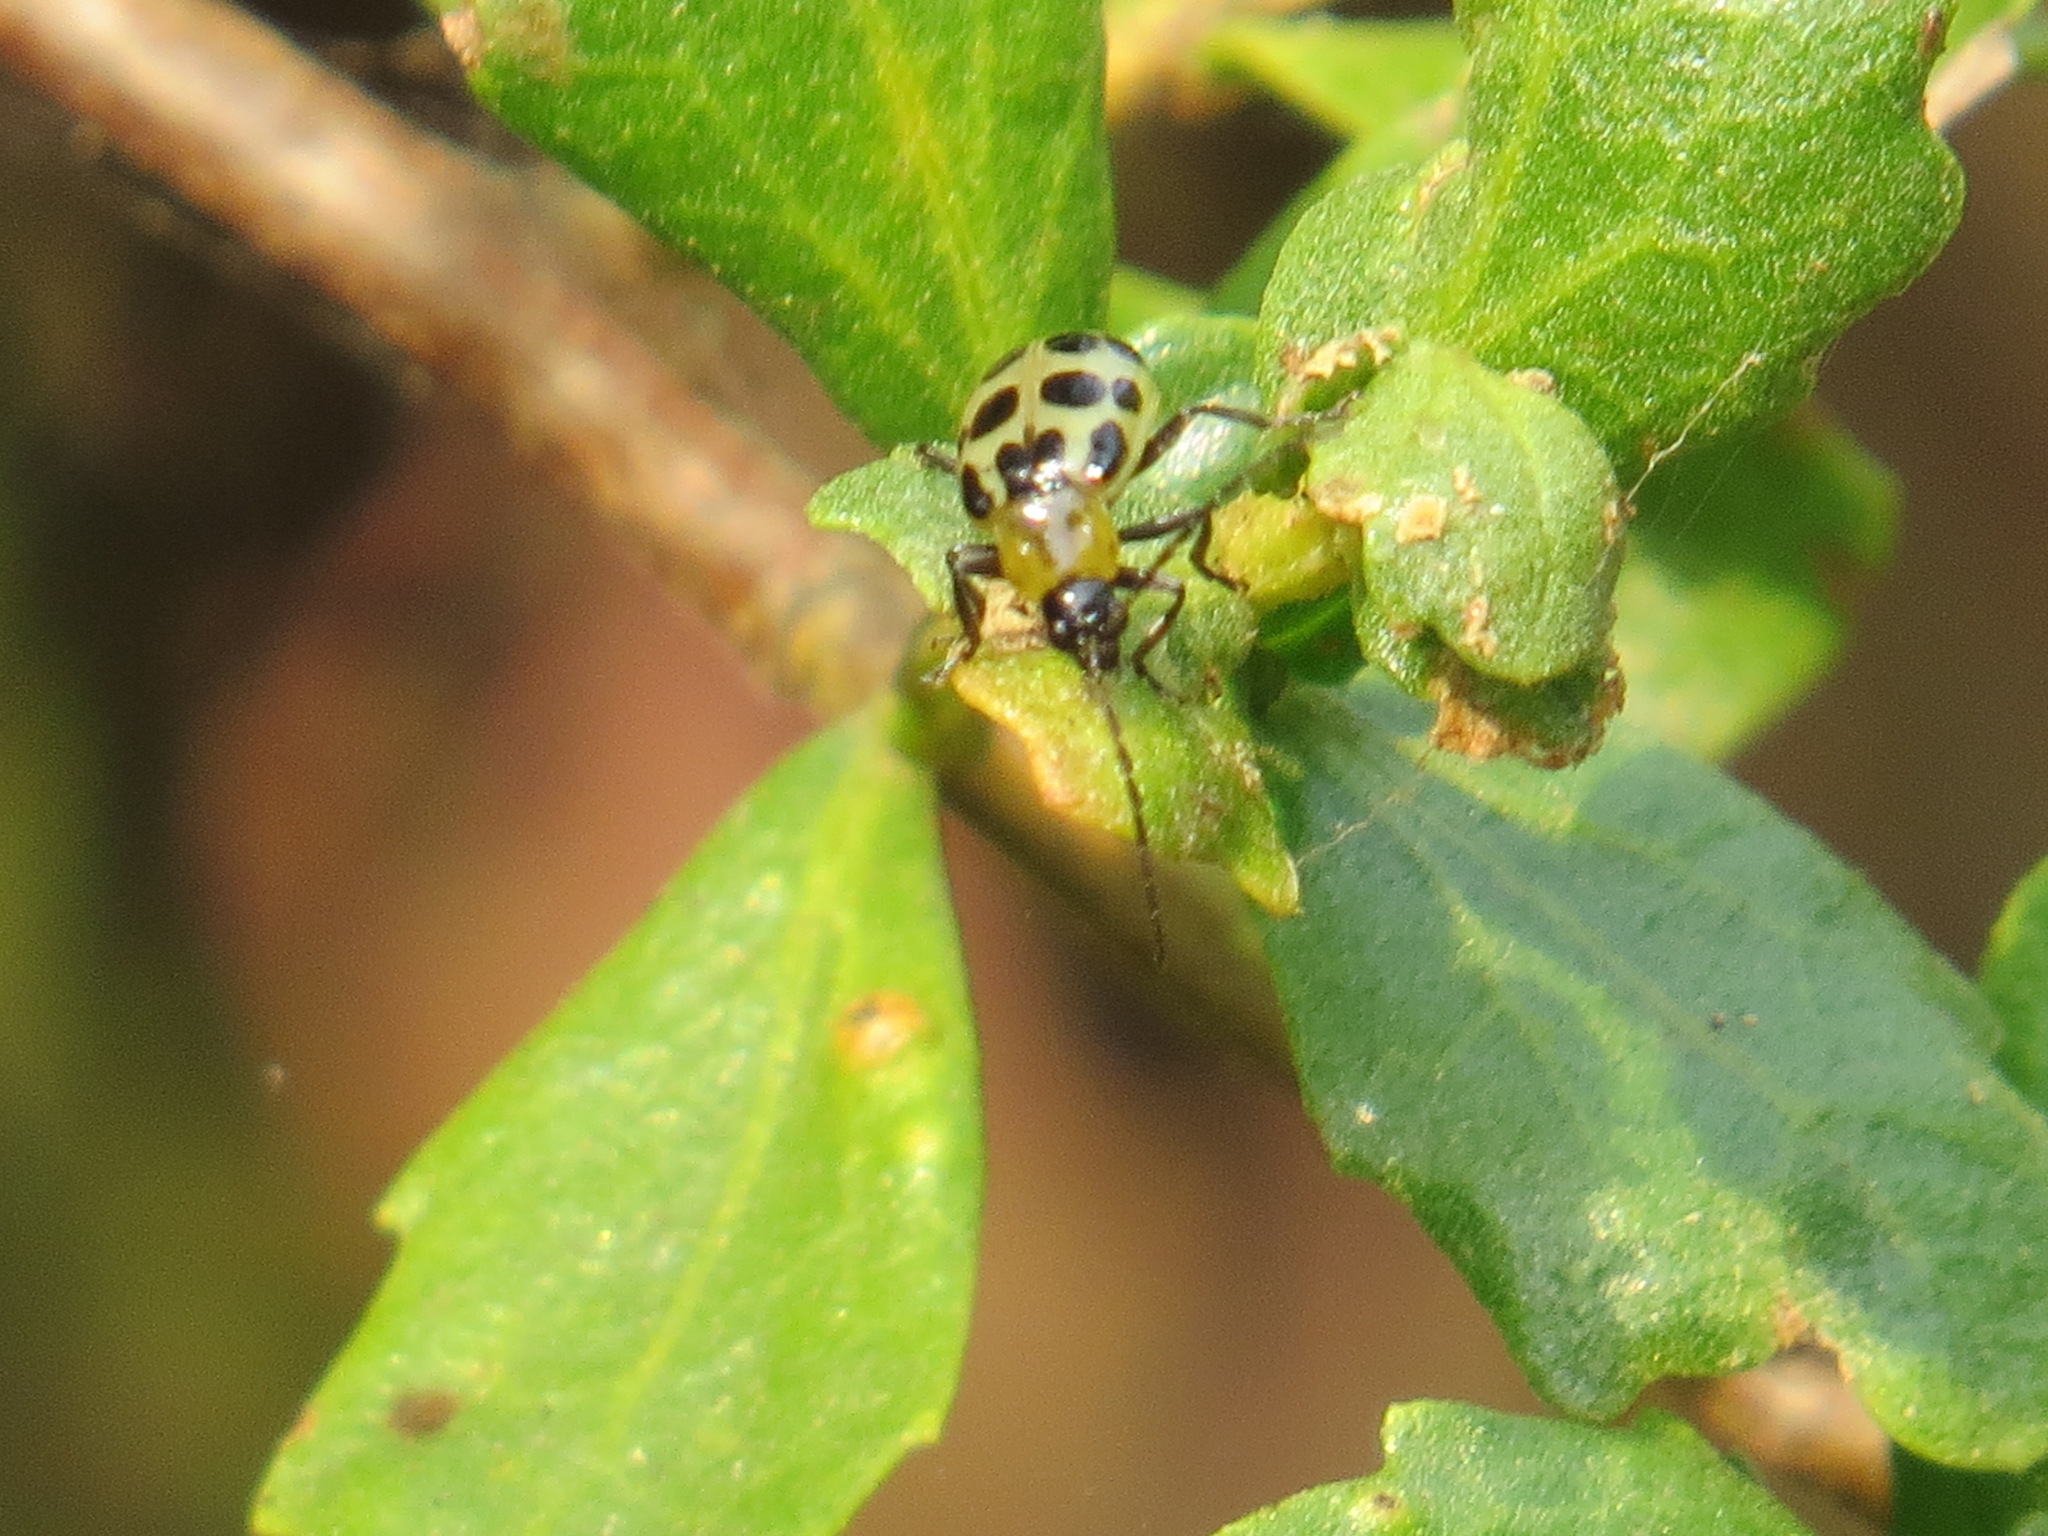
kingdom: Animalia
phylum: Arthropoda
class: Insecta
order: Coleoptera
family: Chrysomelidae
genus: Diabrotica
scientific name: Diabrotica undecimpunctata
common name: Spotted cucumber beetle
